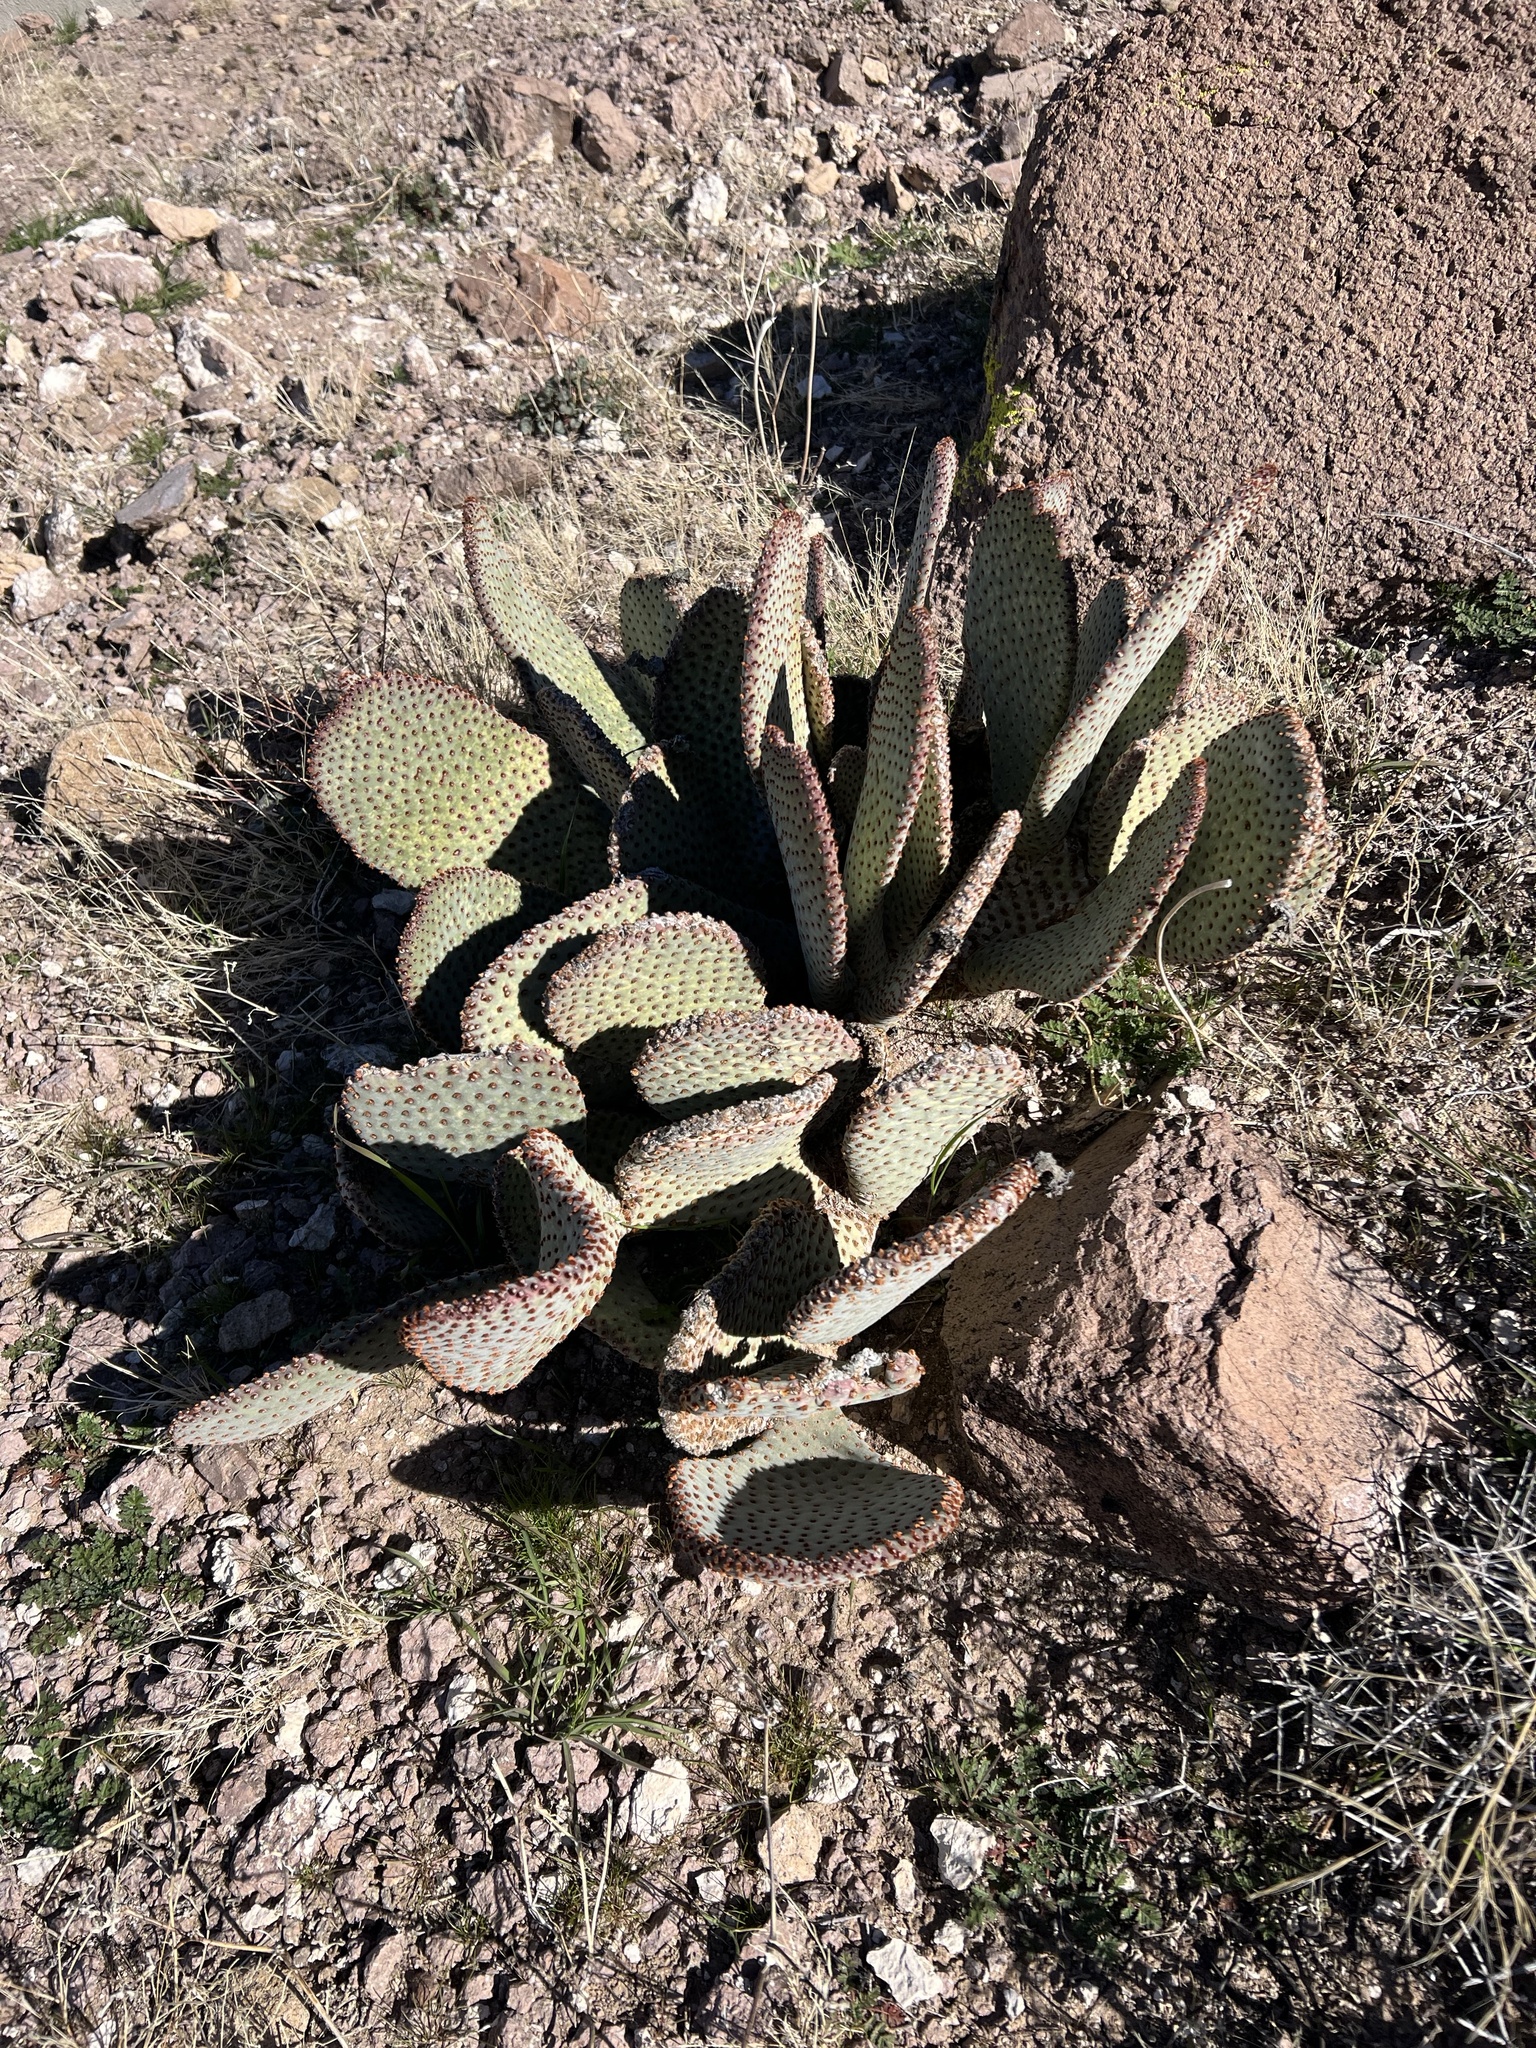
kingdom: Plantae
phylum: Tracheophyta
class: Magnoliopsida
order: Caryophyllales
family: Cactaceae
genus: Opuntia
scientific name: Opuntia basilaris
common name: Beavertail prickly-pear
